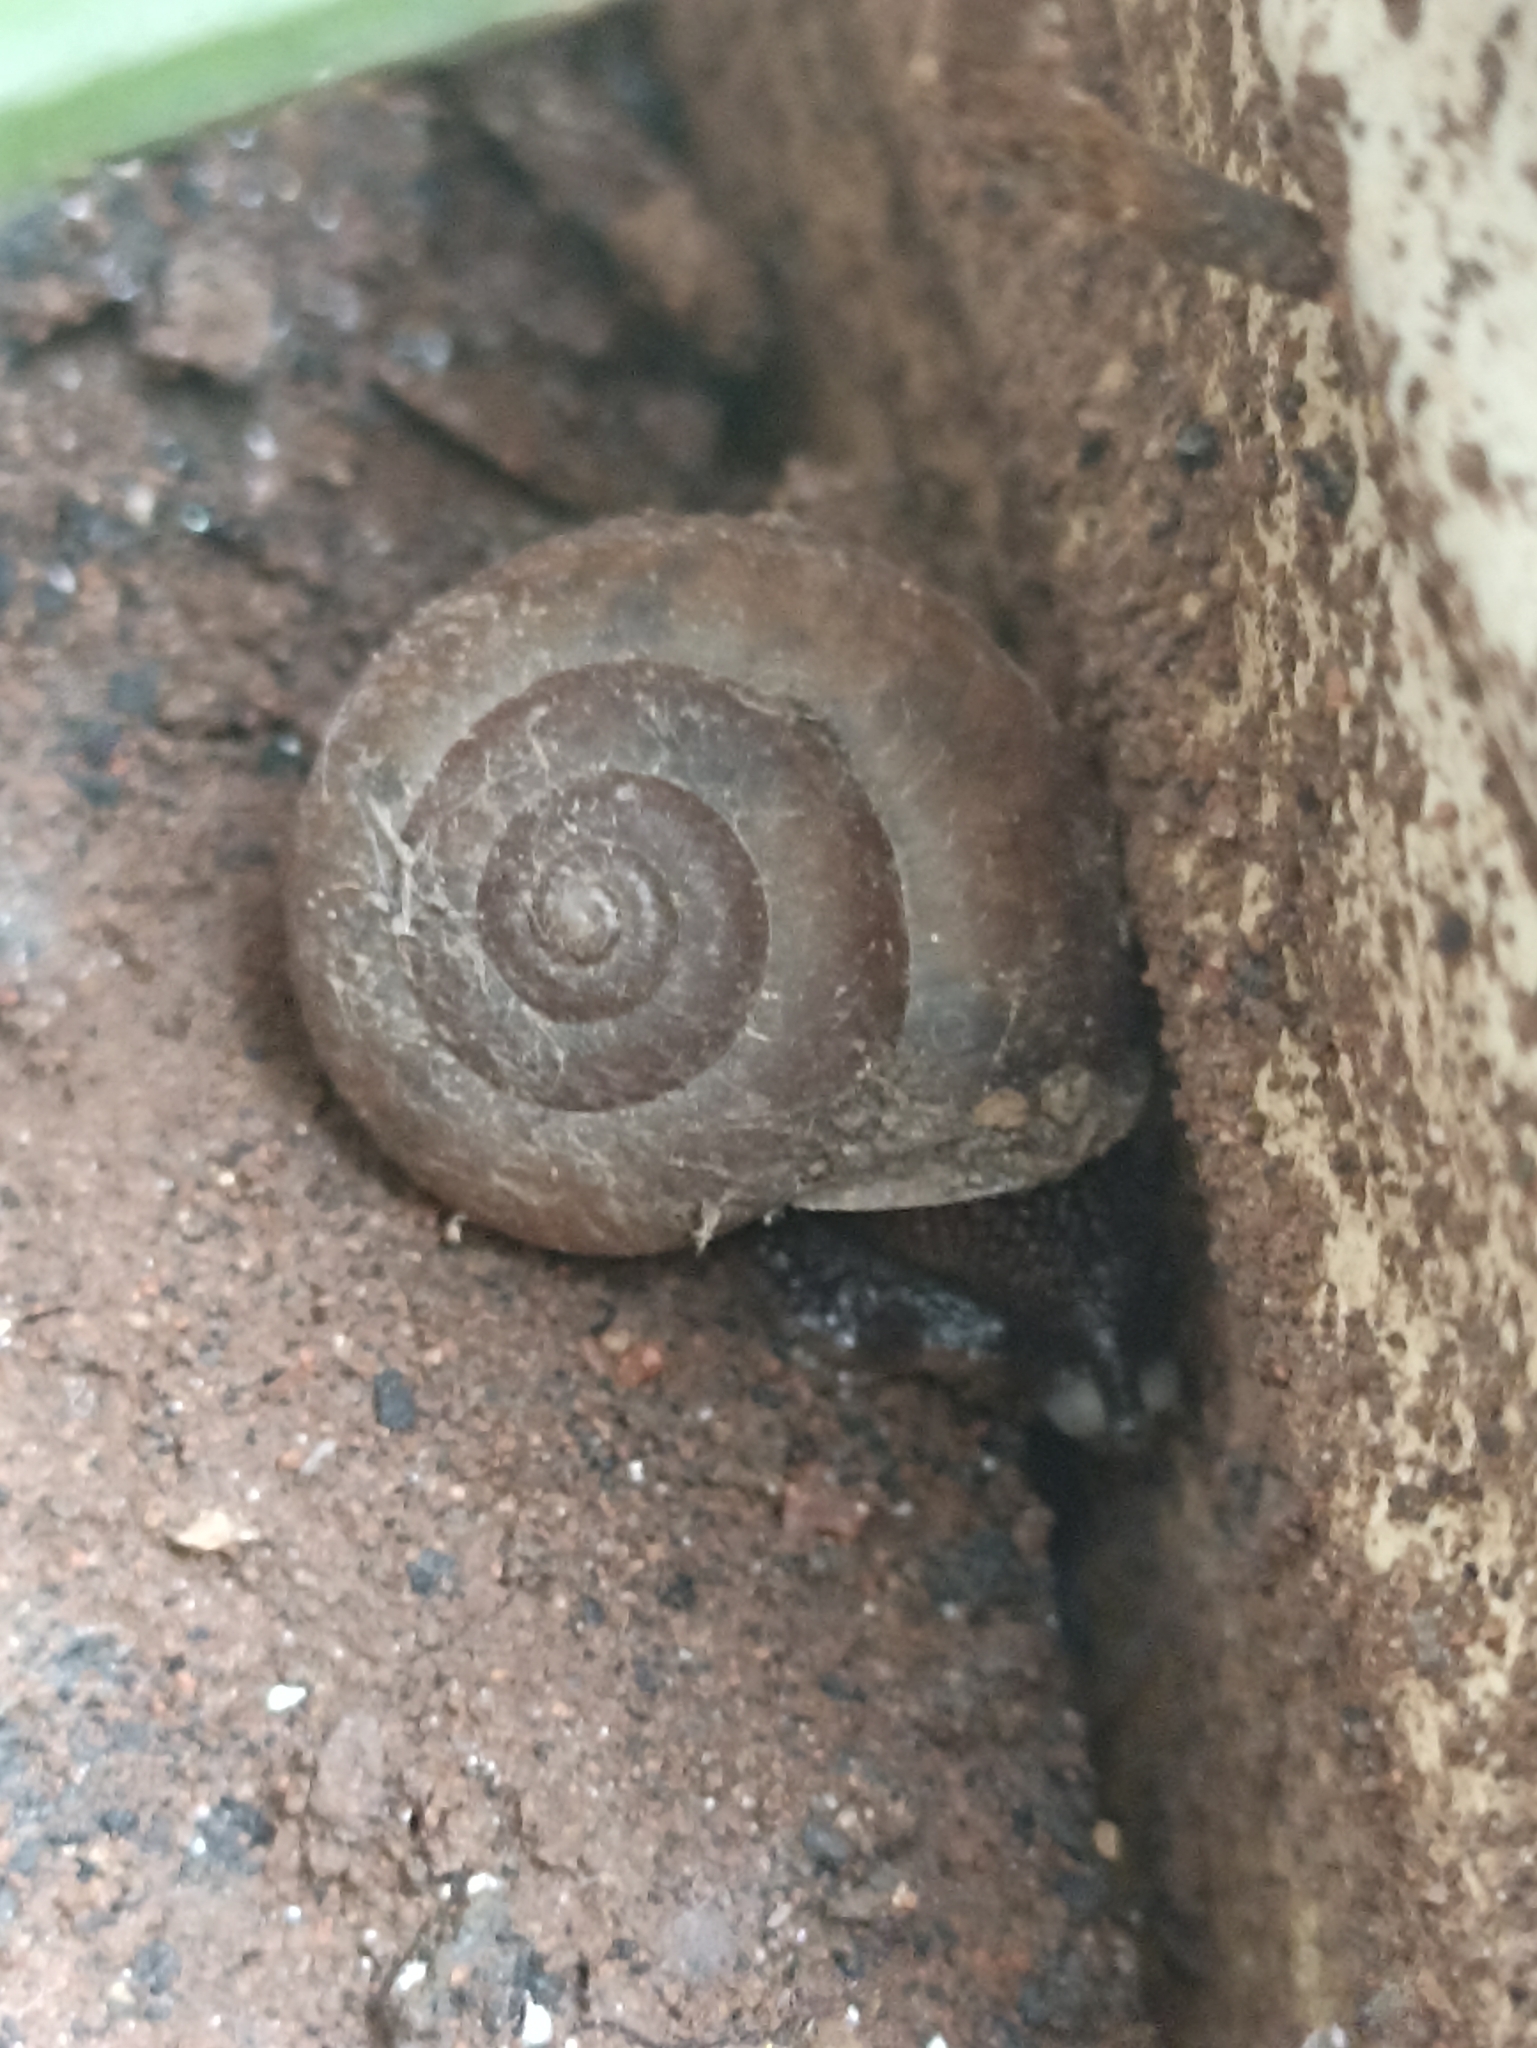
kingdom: Animalia
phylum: Mollusca
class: Gastropoda
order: Stylommatophora
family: Camaenidae
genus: Bradybaena
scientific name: Bradybaena similaris
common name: Asian trampsnail
